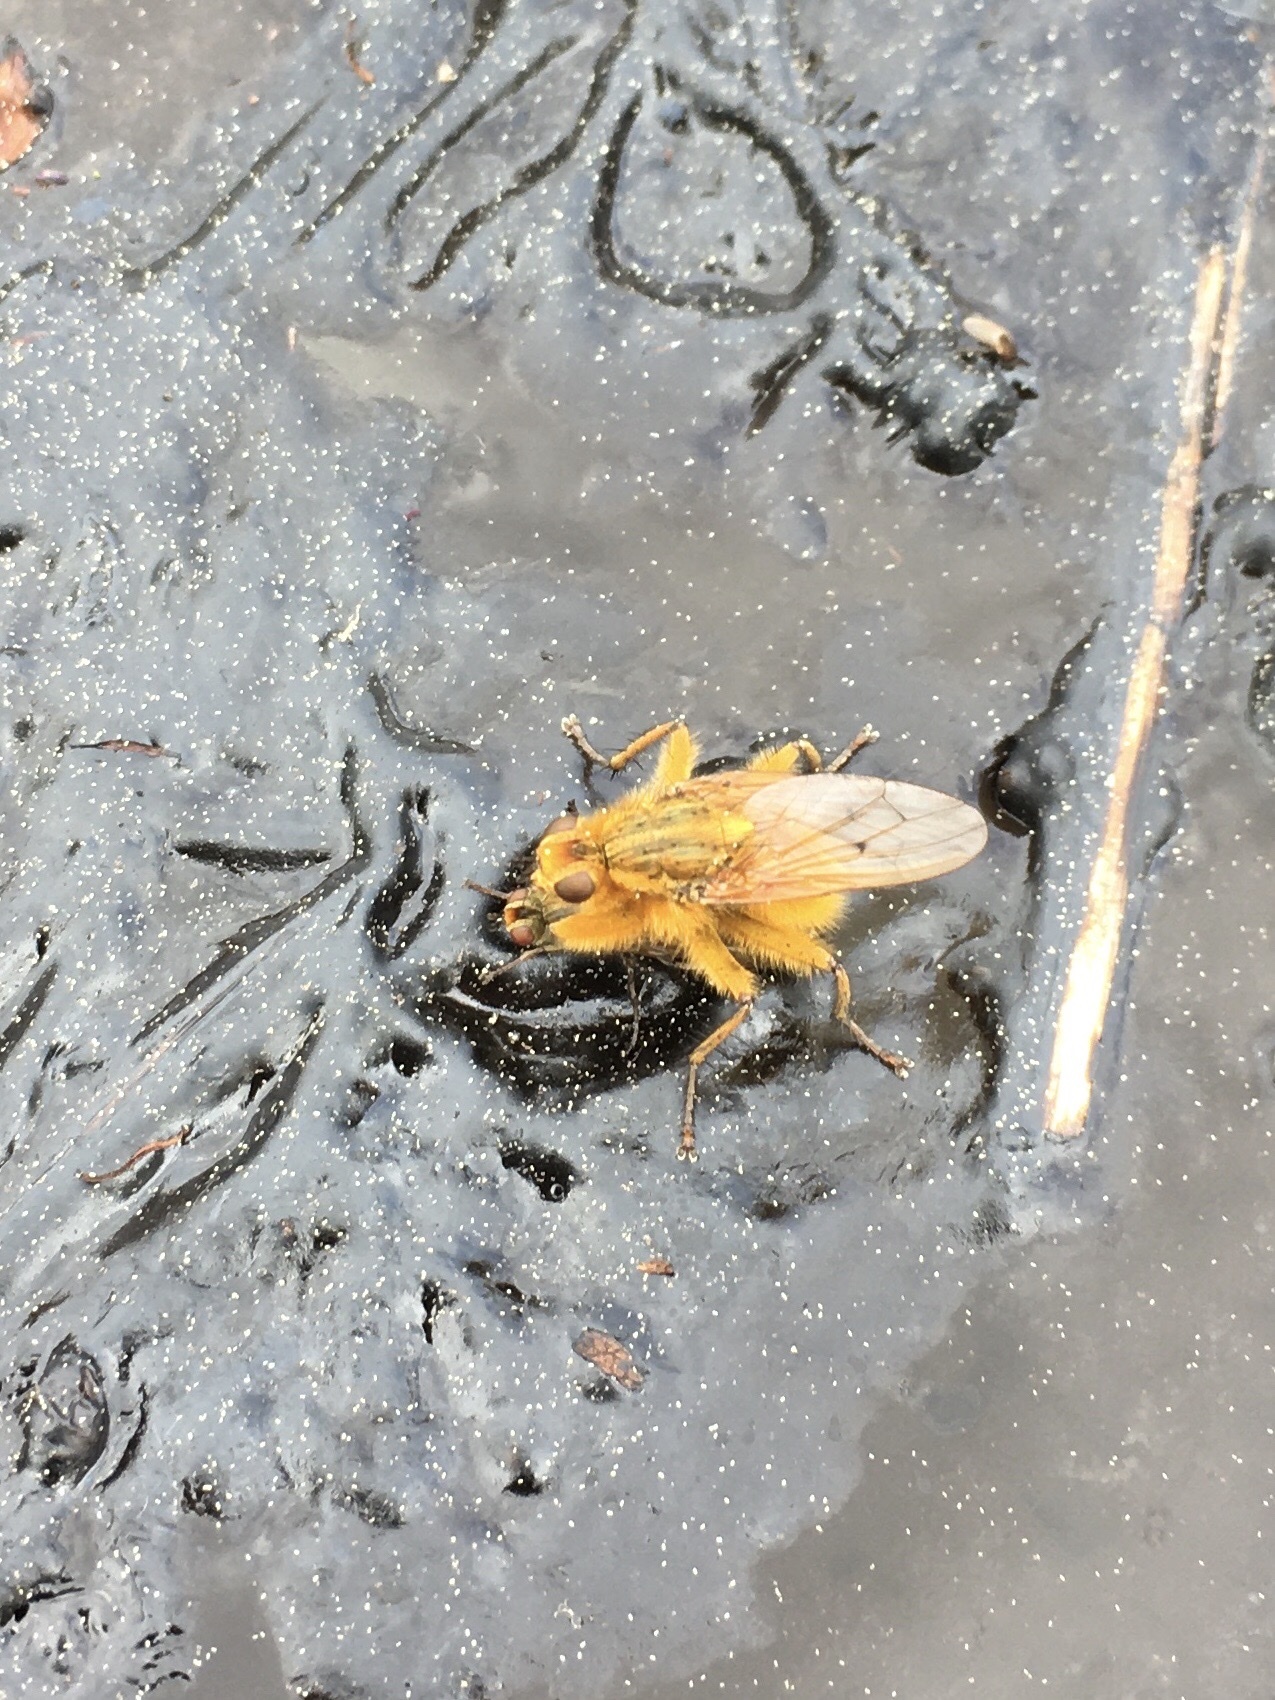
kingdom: Animalia
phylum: Arthropoda
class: Insecta
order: Diptera
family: Scathophagidae
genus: Scathophaga
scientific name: Scathophaga stercoraria
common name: Yellow dung fly
